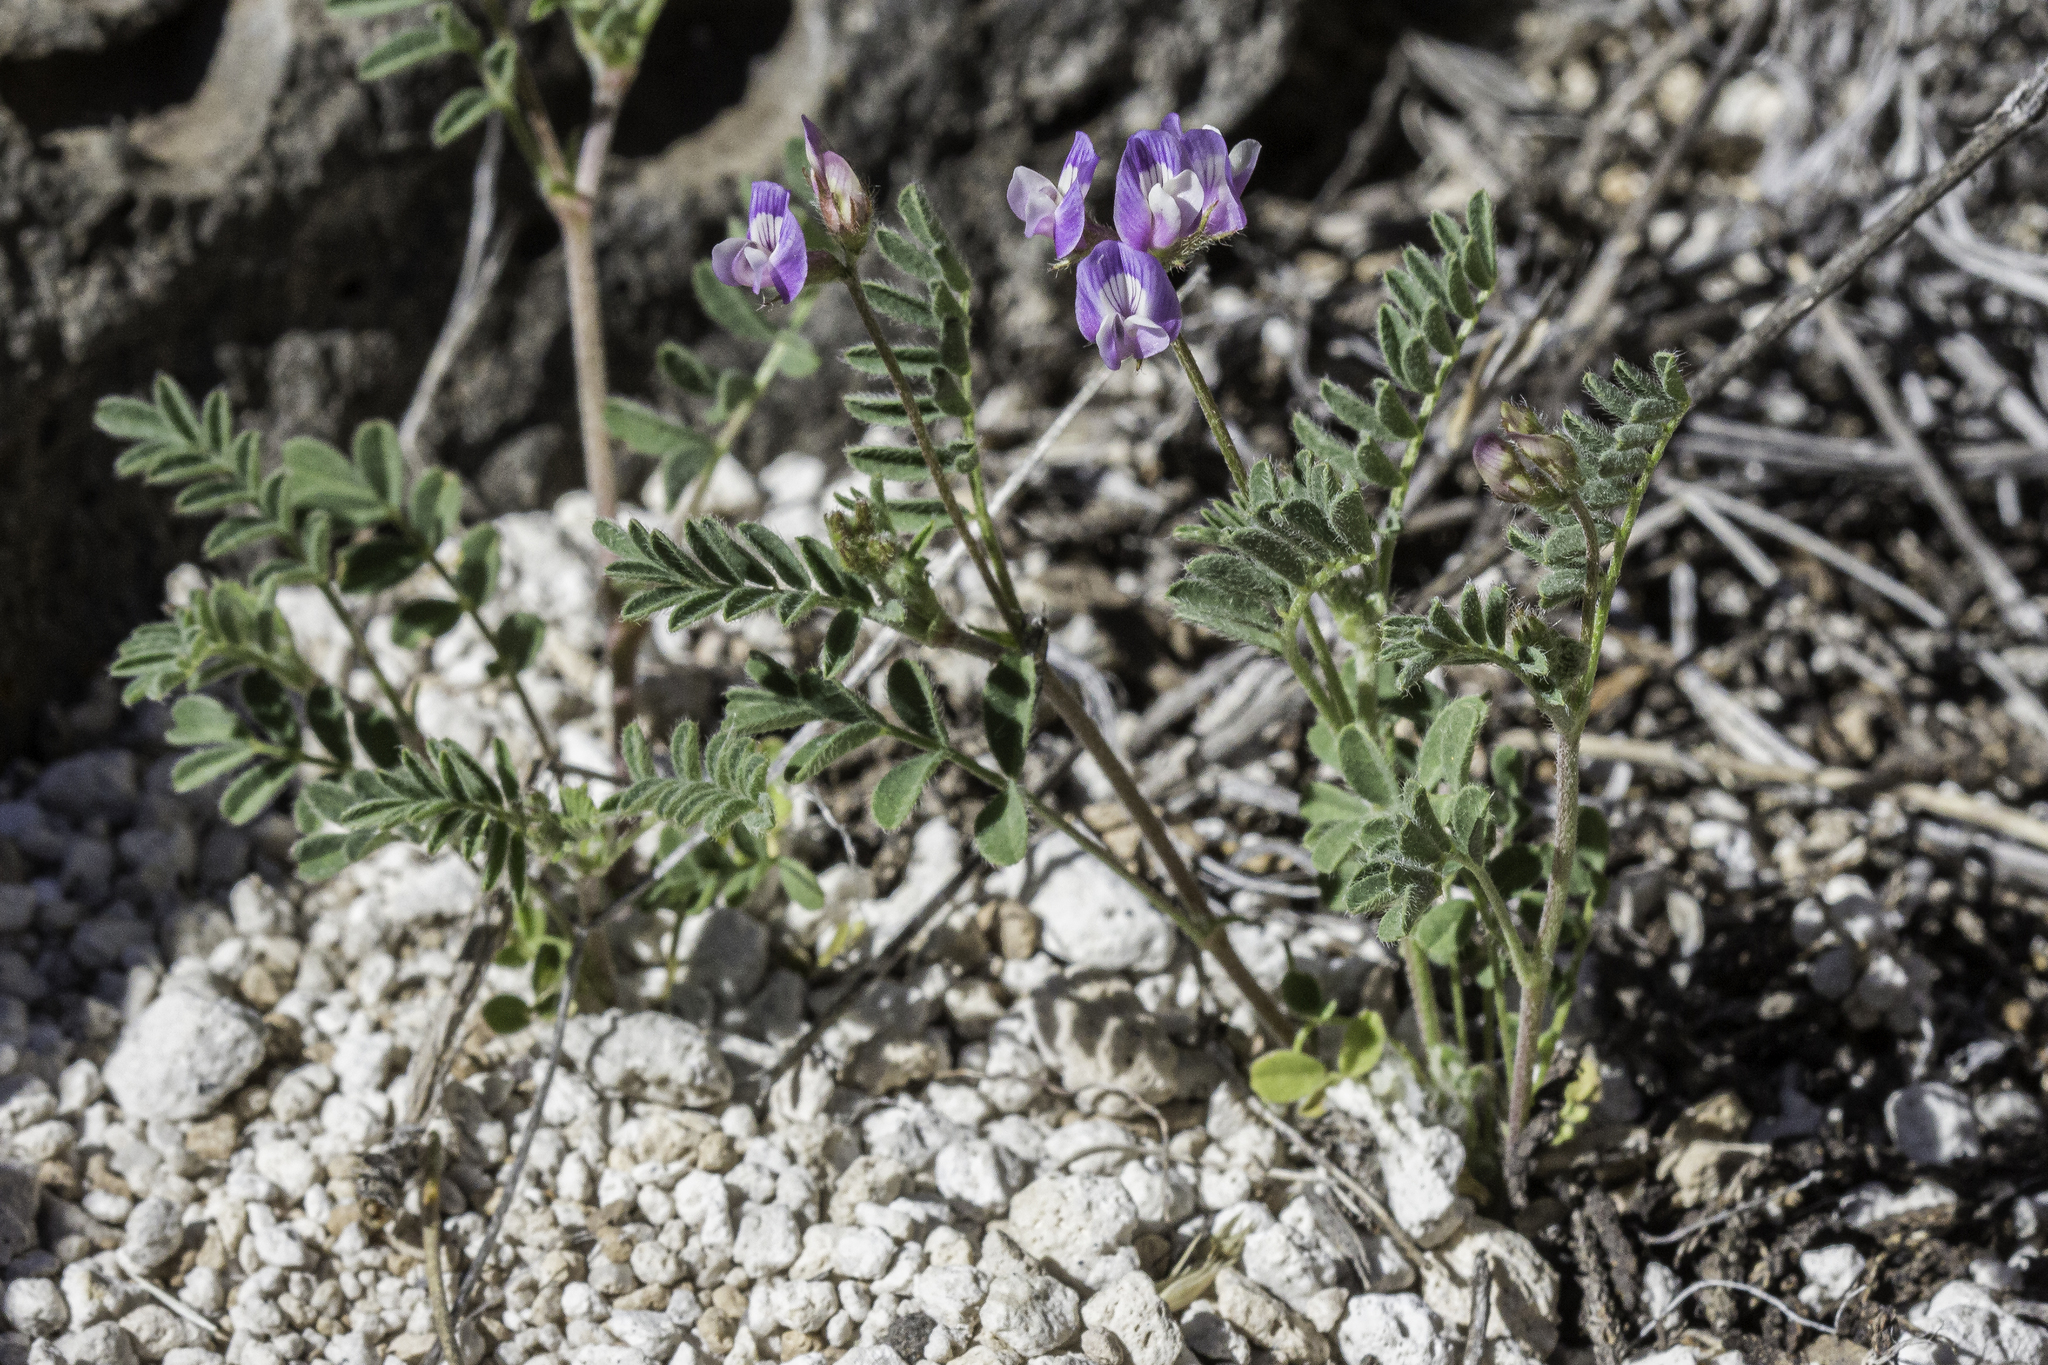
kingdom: Plantae
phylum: Tracheophyta
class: Magnoliopsida
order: Fabales
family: Fabaceae
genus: Astragalus
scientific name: Astragalus nuttallianus
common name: Smallflowered milkvetch
